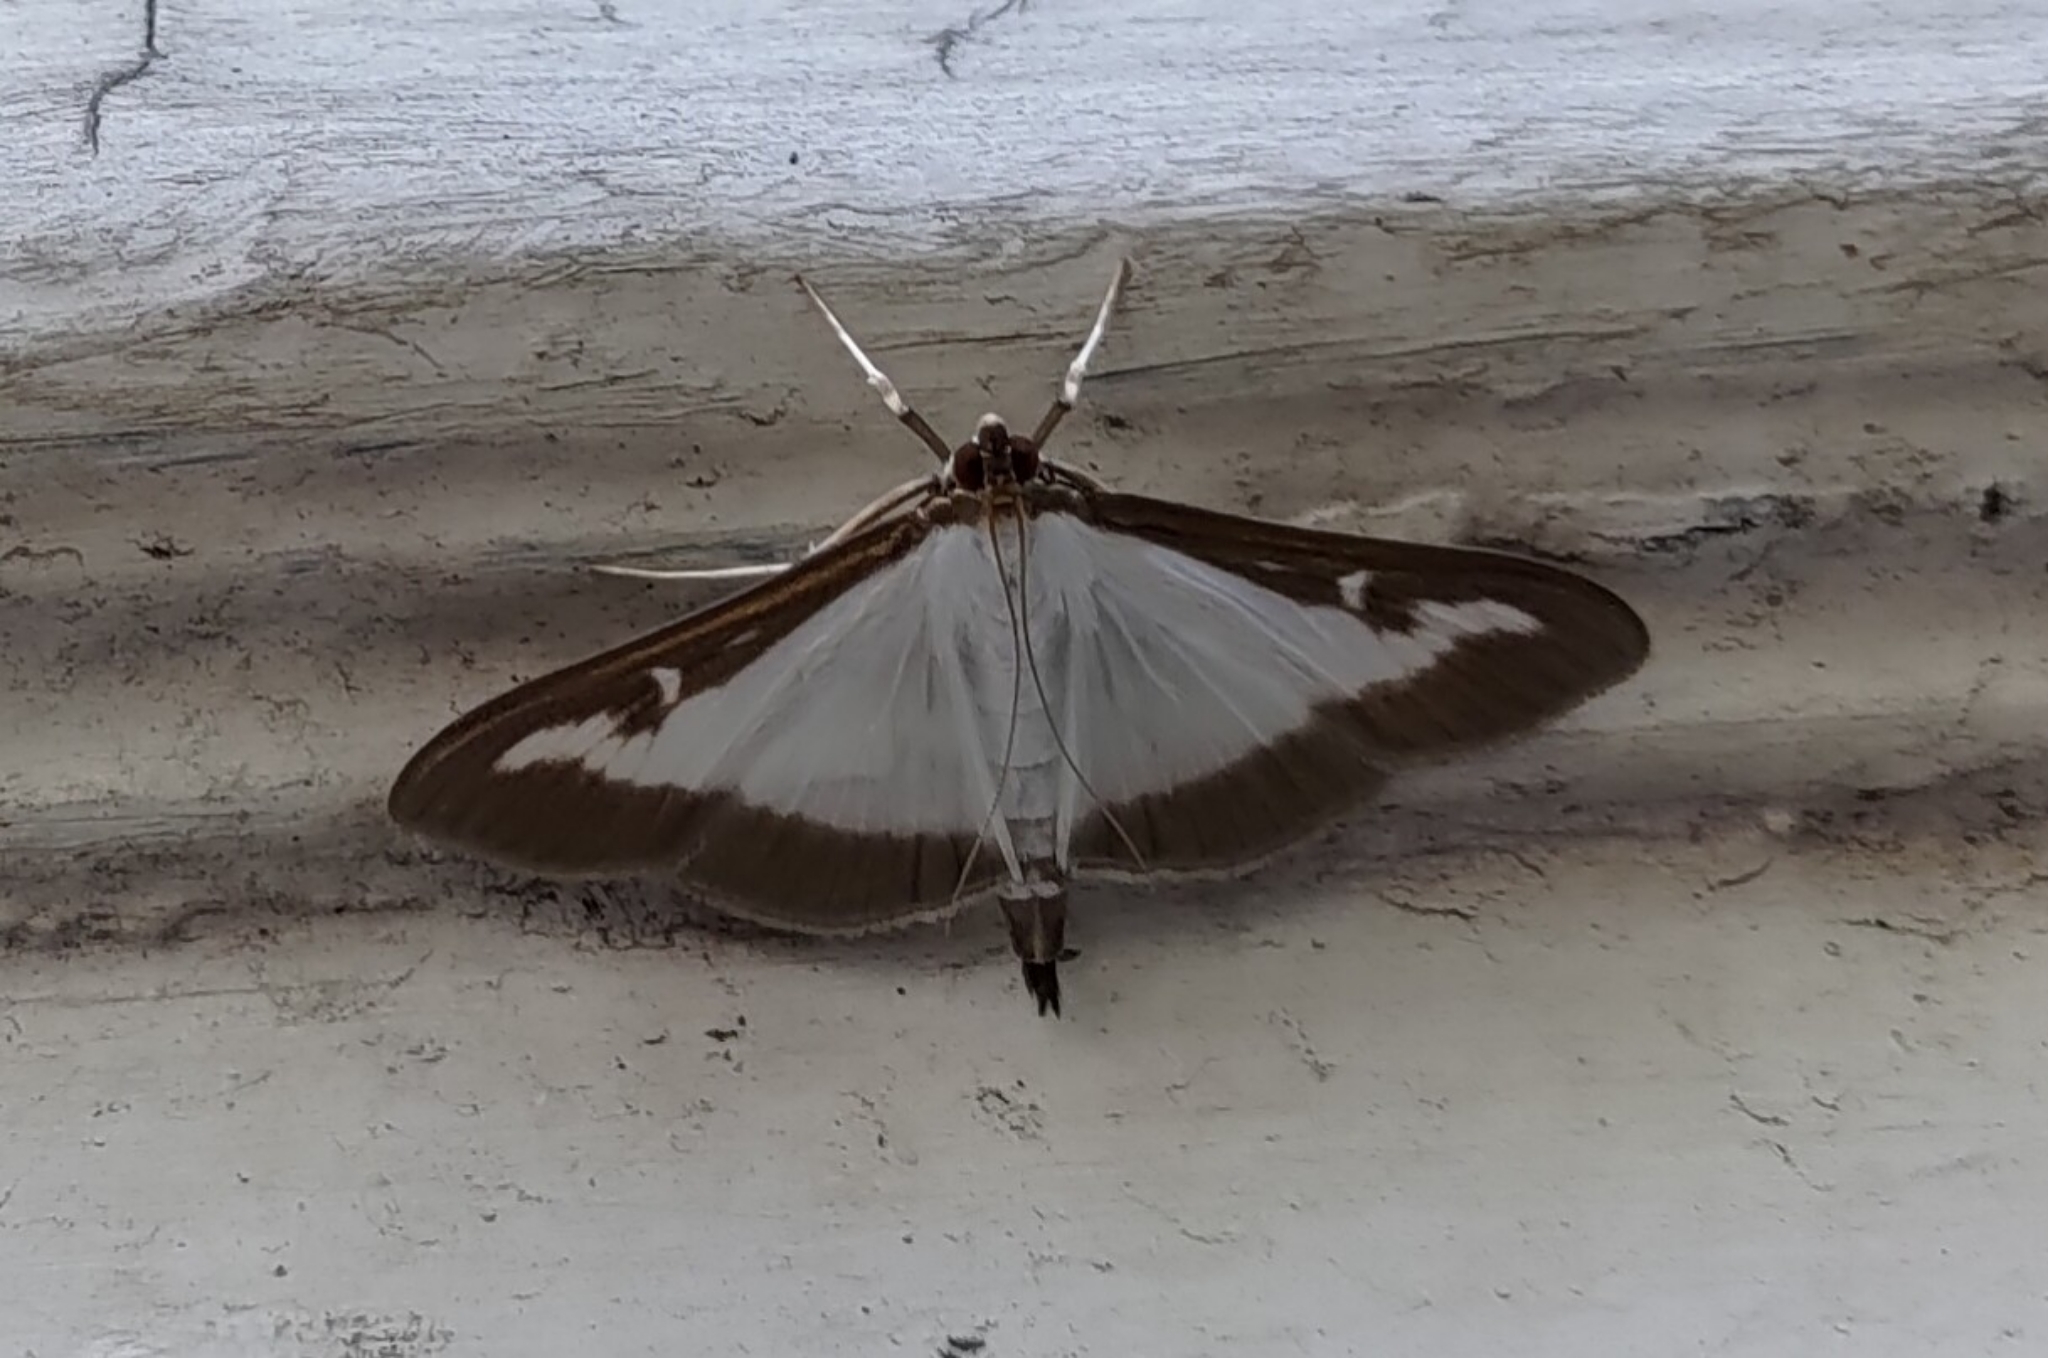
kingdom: Animalia
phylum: Arthropoda
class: Insecta
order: Lepidoptera
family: Crambidae
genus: Cydalima
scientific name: Cydalima perspectalis
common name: Box tree moth
